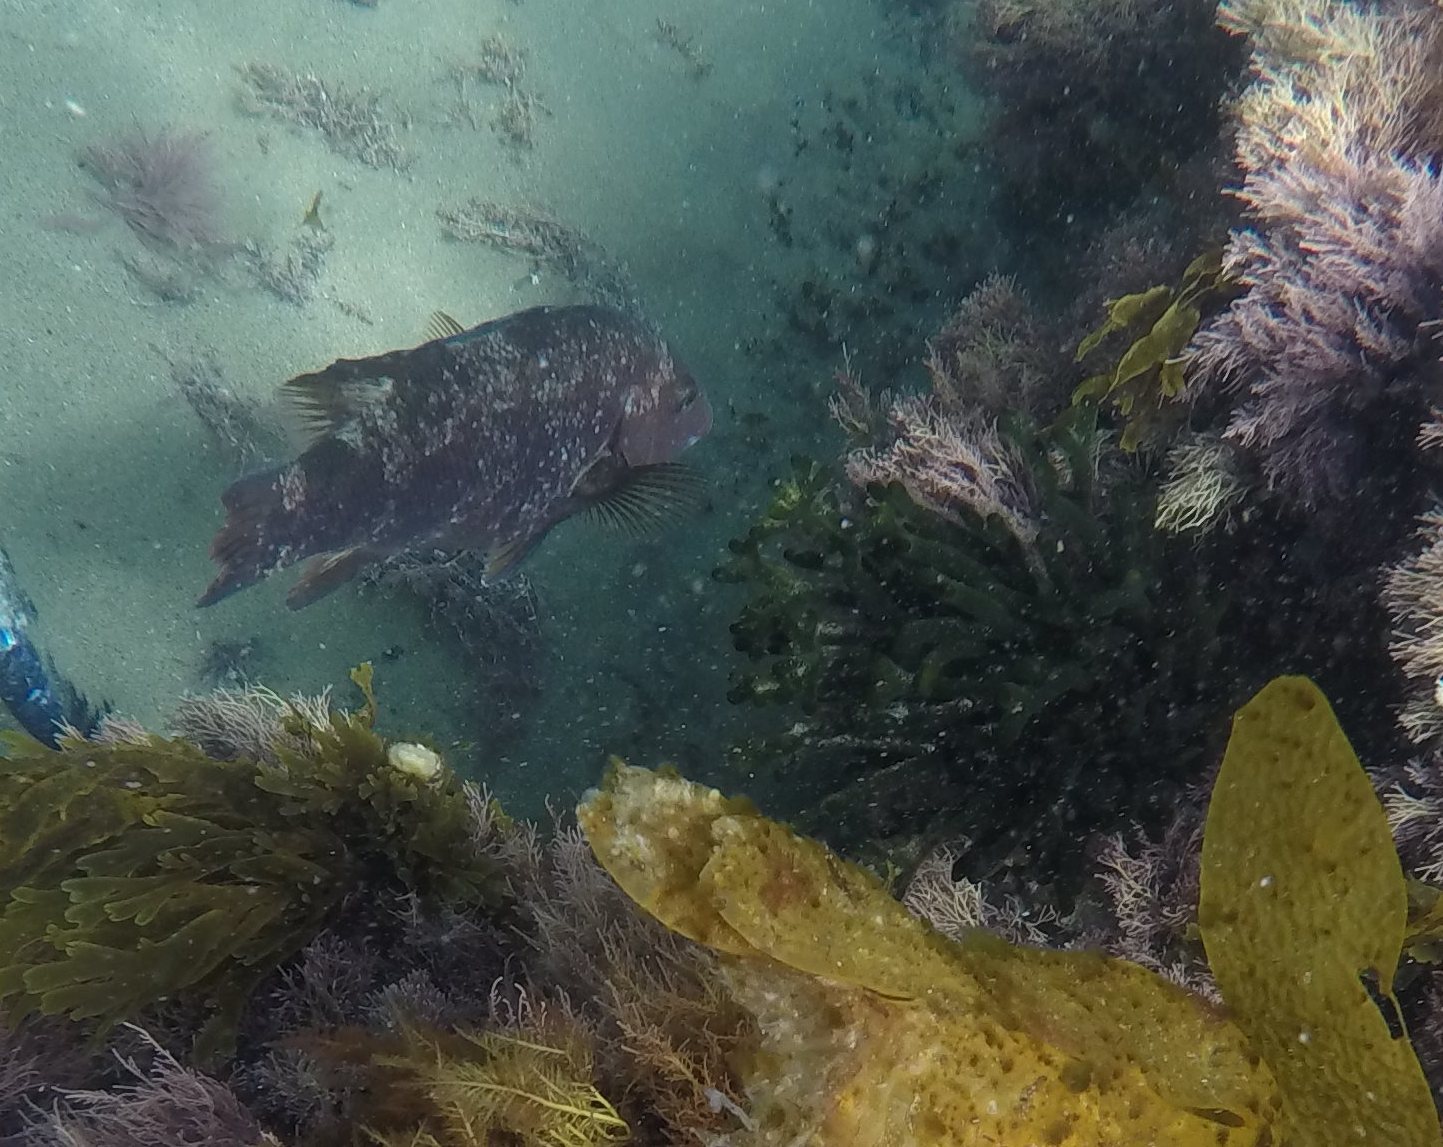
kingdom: Animalia
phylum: Chordata
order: Perciformes
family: Labridae
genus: Semicossyphus
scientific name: Semicossyphus pulcher
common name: California sheephead
